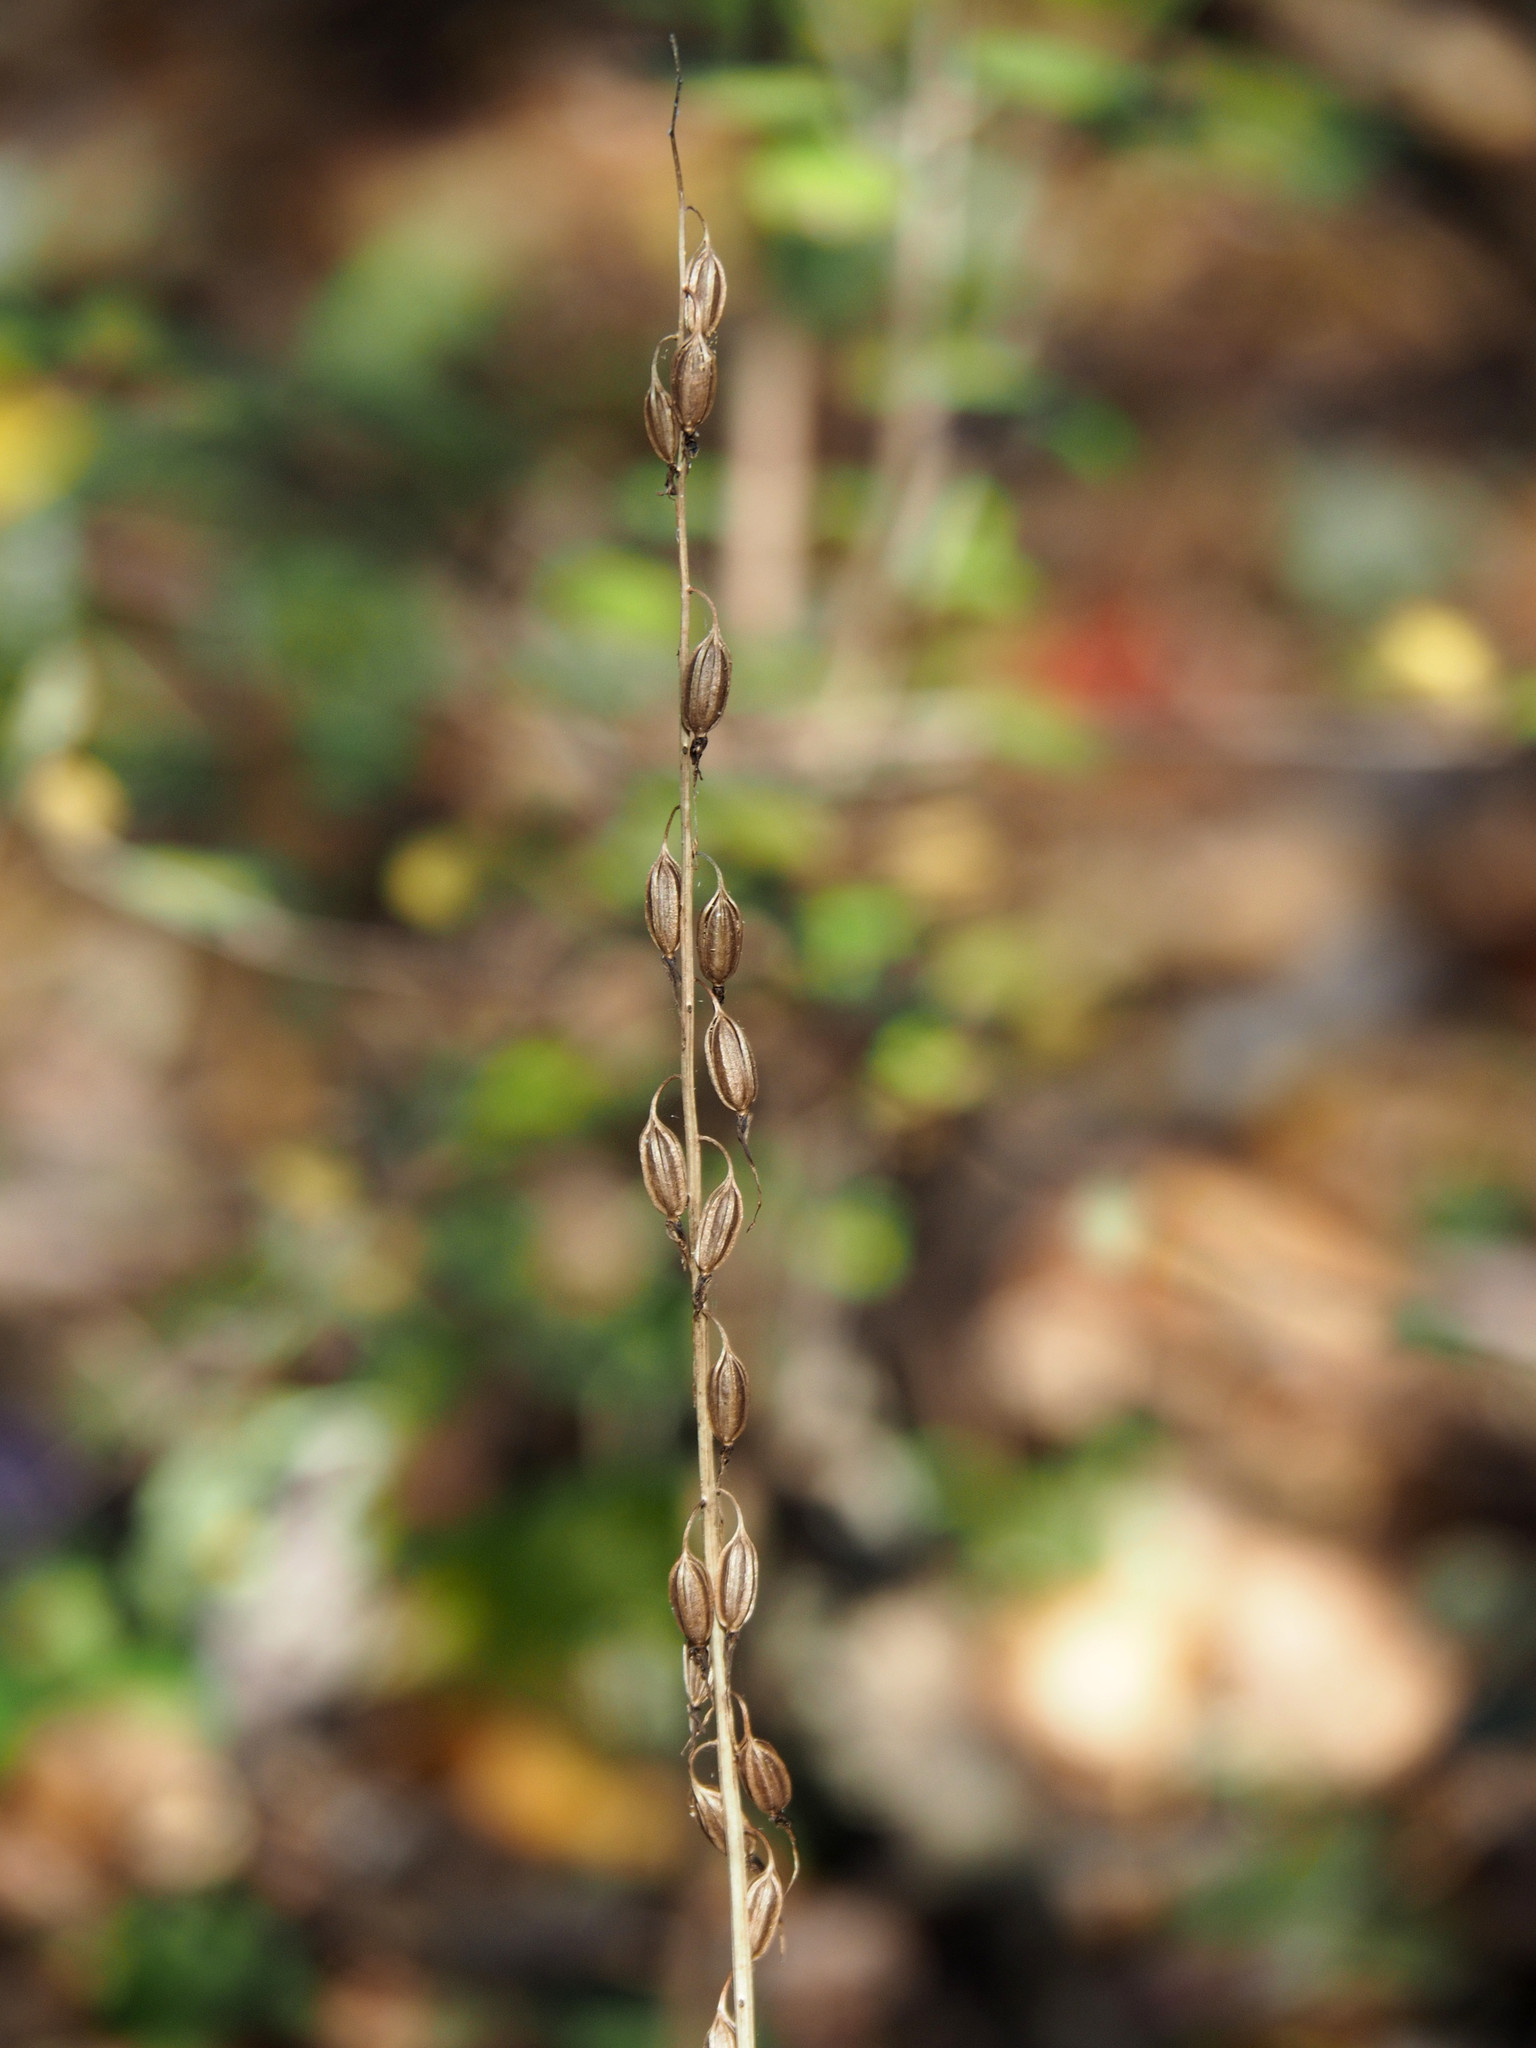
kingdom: Plantae
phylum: Tracheophyta
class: Liliopsida
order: Asparagales
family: Orchidaceae
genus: Tipularia
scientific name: Tipularia discolor
